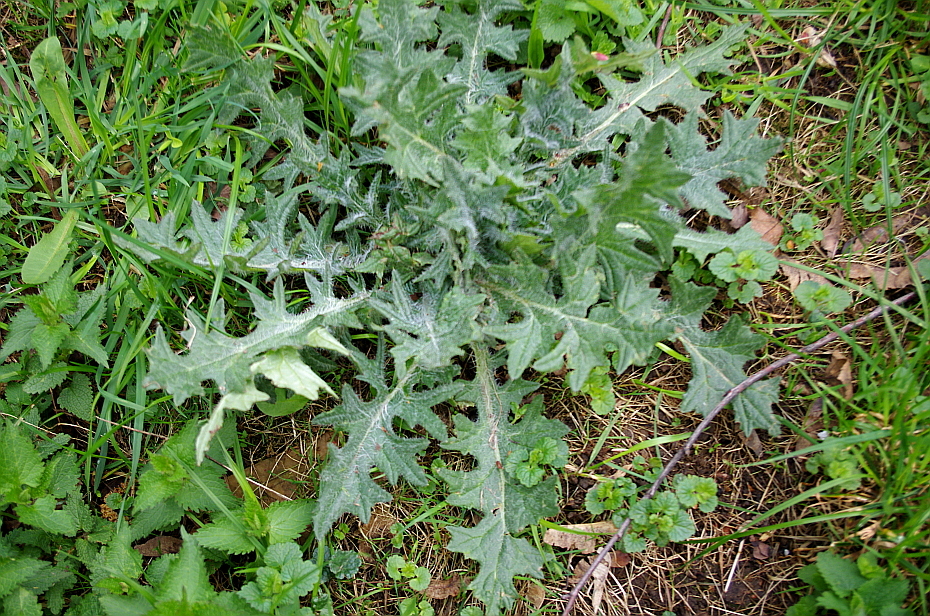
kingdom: Plantae
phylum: Tracheophyta
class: Magnoliopsida
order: Asterales
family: Asteraceae
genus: Cirsium
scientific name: Cirsium vulgare
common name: Bull thistle
